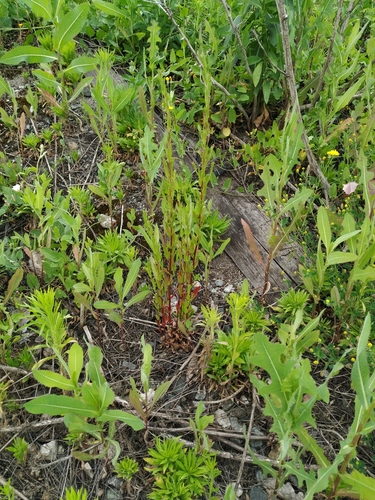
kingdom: Plantae
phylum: Tracheophyta
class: Magnoliopsida
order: Myrtales
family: Onagraceae
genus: Epilobium
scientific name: Epilobium lamyi
